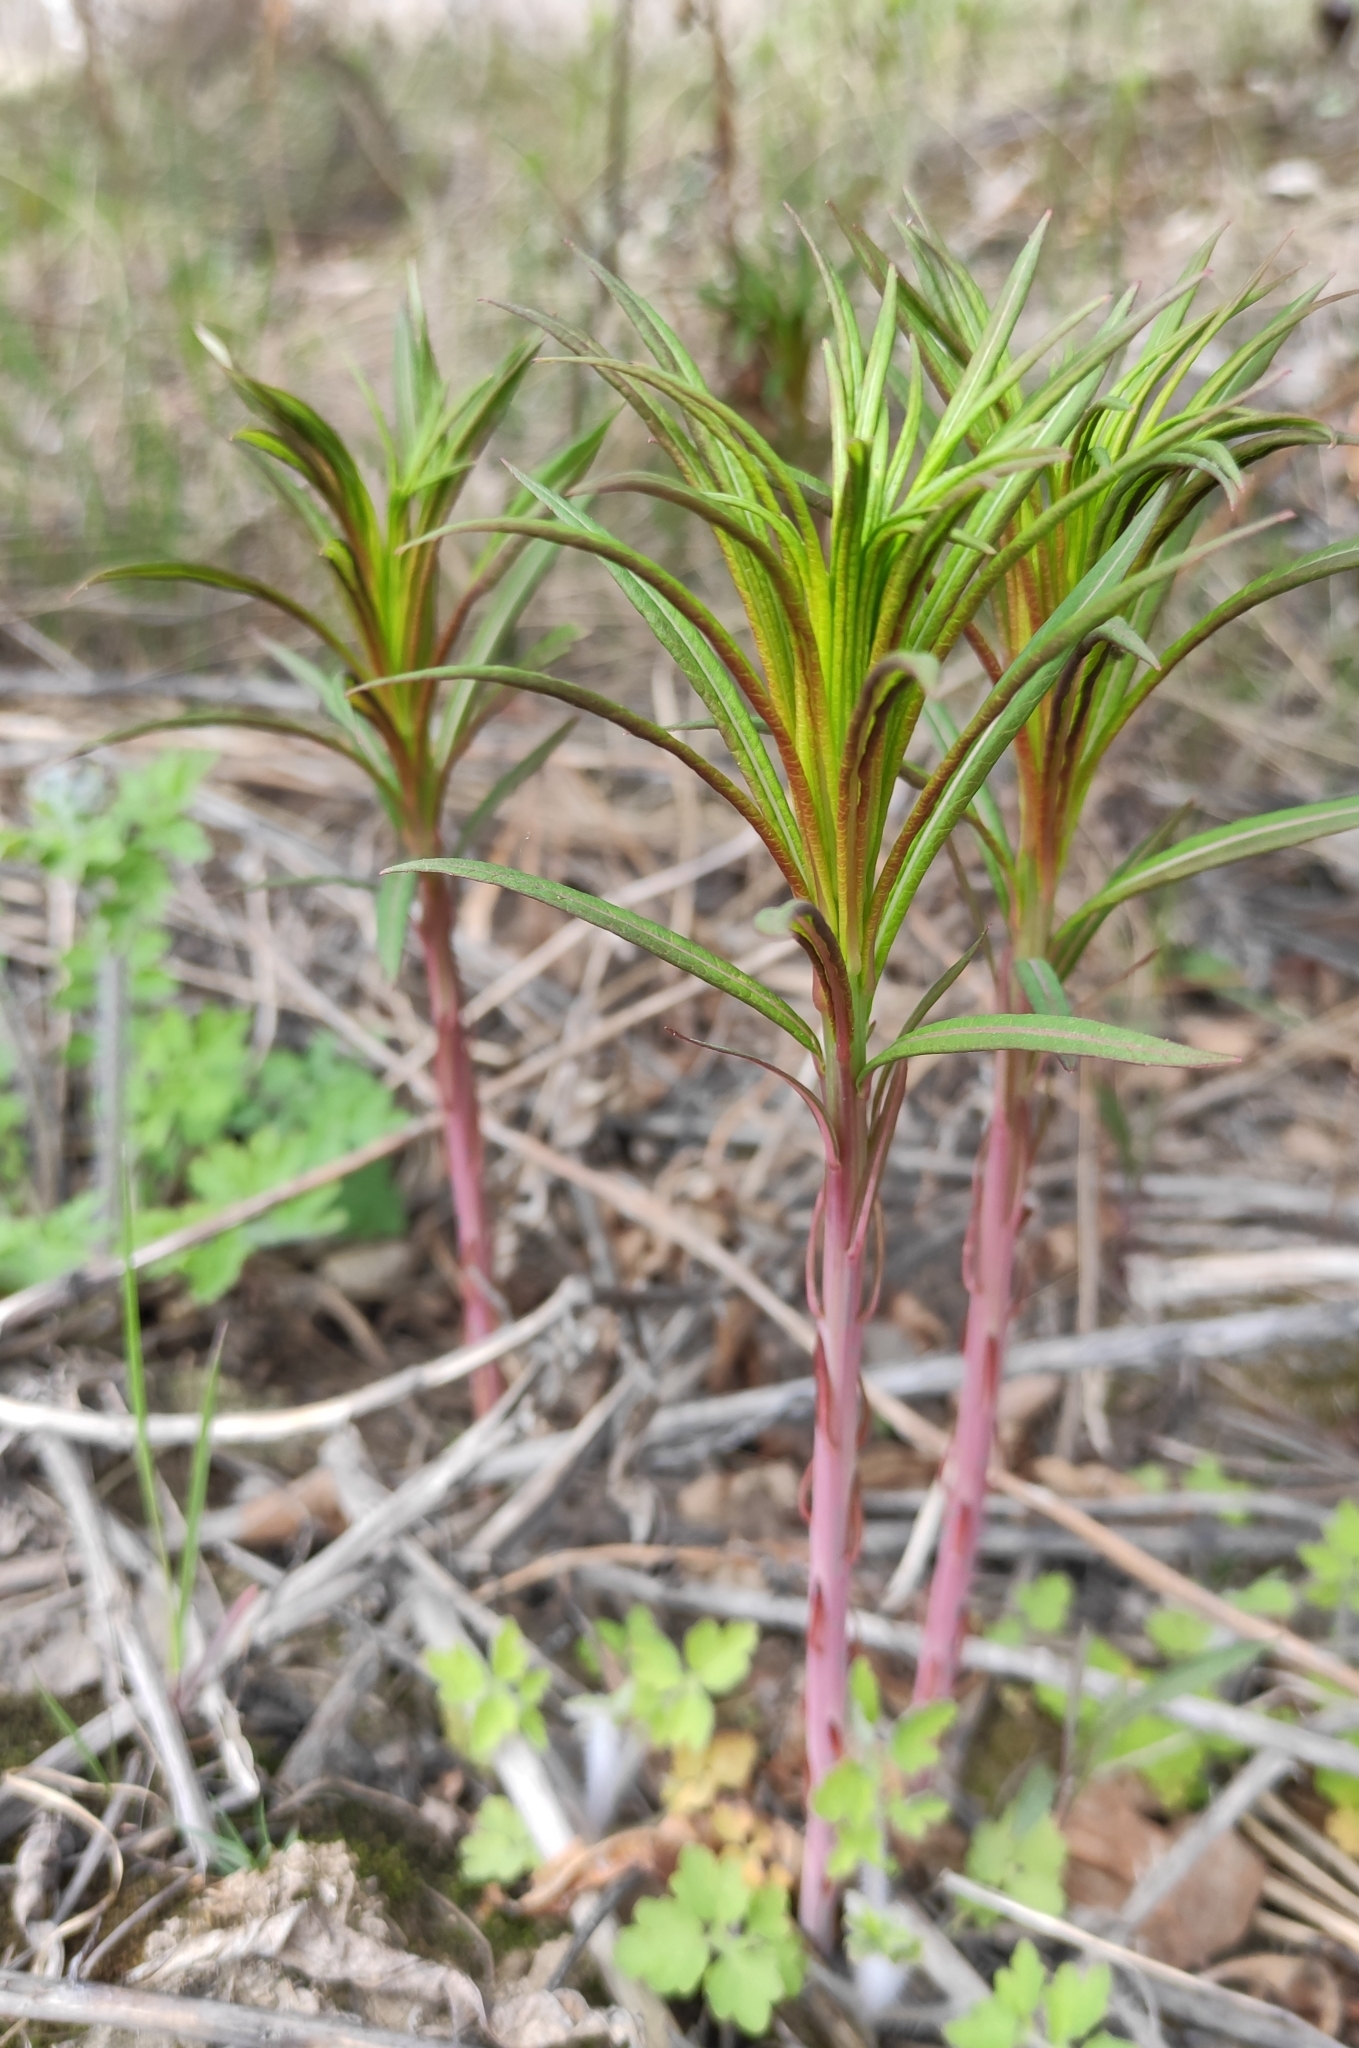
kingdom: Plantae
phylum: Tracheophyta
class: Magnoliopsida
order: Myrtales
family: Onagraceae
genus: Chamaenerion
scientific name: Chamaenerion angustifolium
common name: Fireweed
